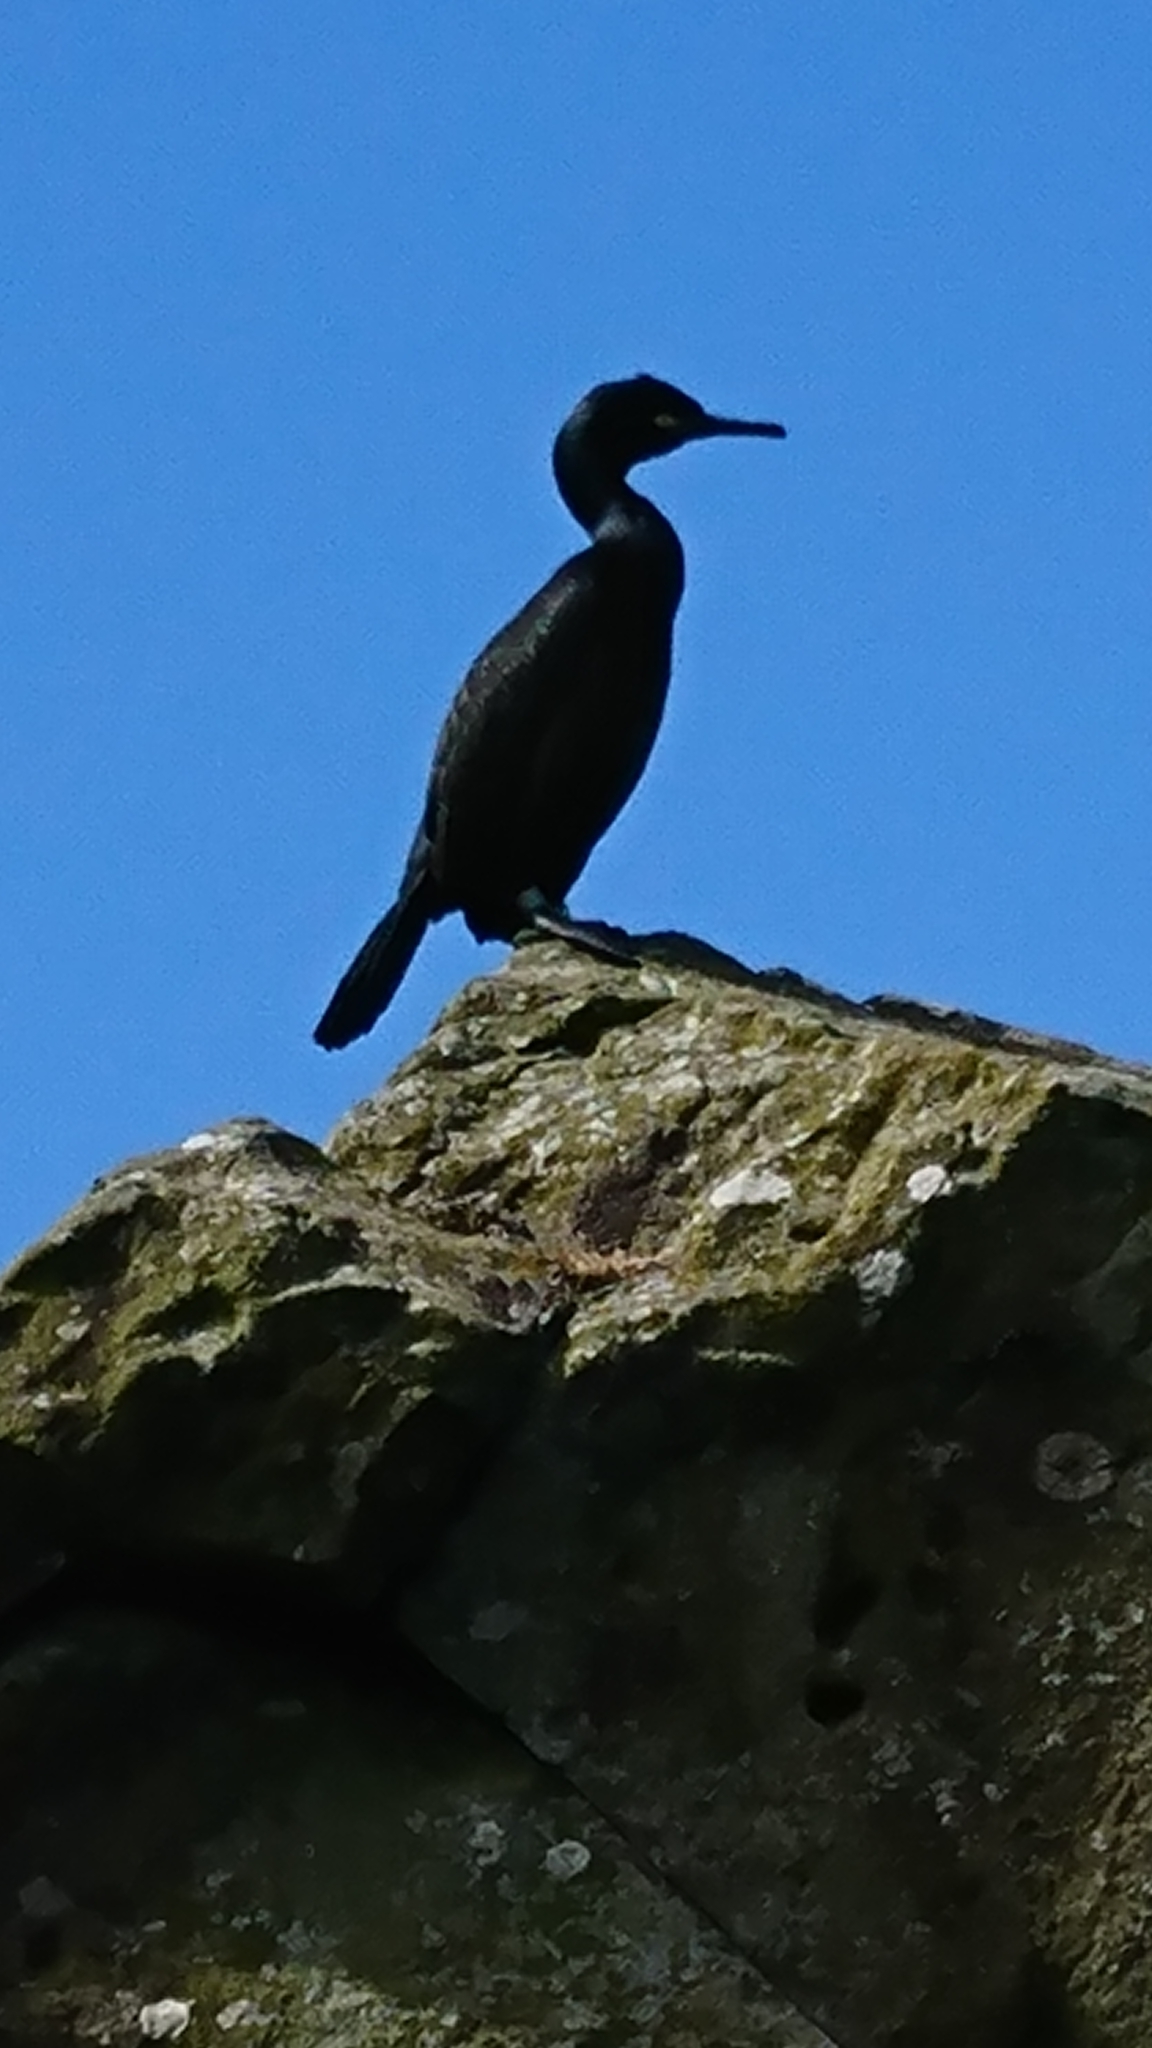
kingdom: Animalia
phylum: Chordata
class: Aves
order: Suliformes
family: Phalacrocoracidae
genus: Phalacrocorax
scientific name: Phalacrocorax aristotelis
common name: European shag
